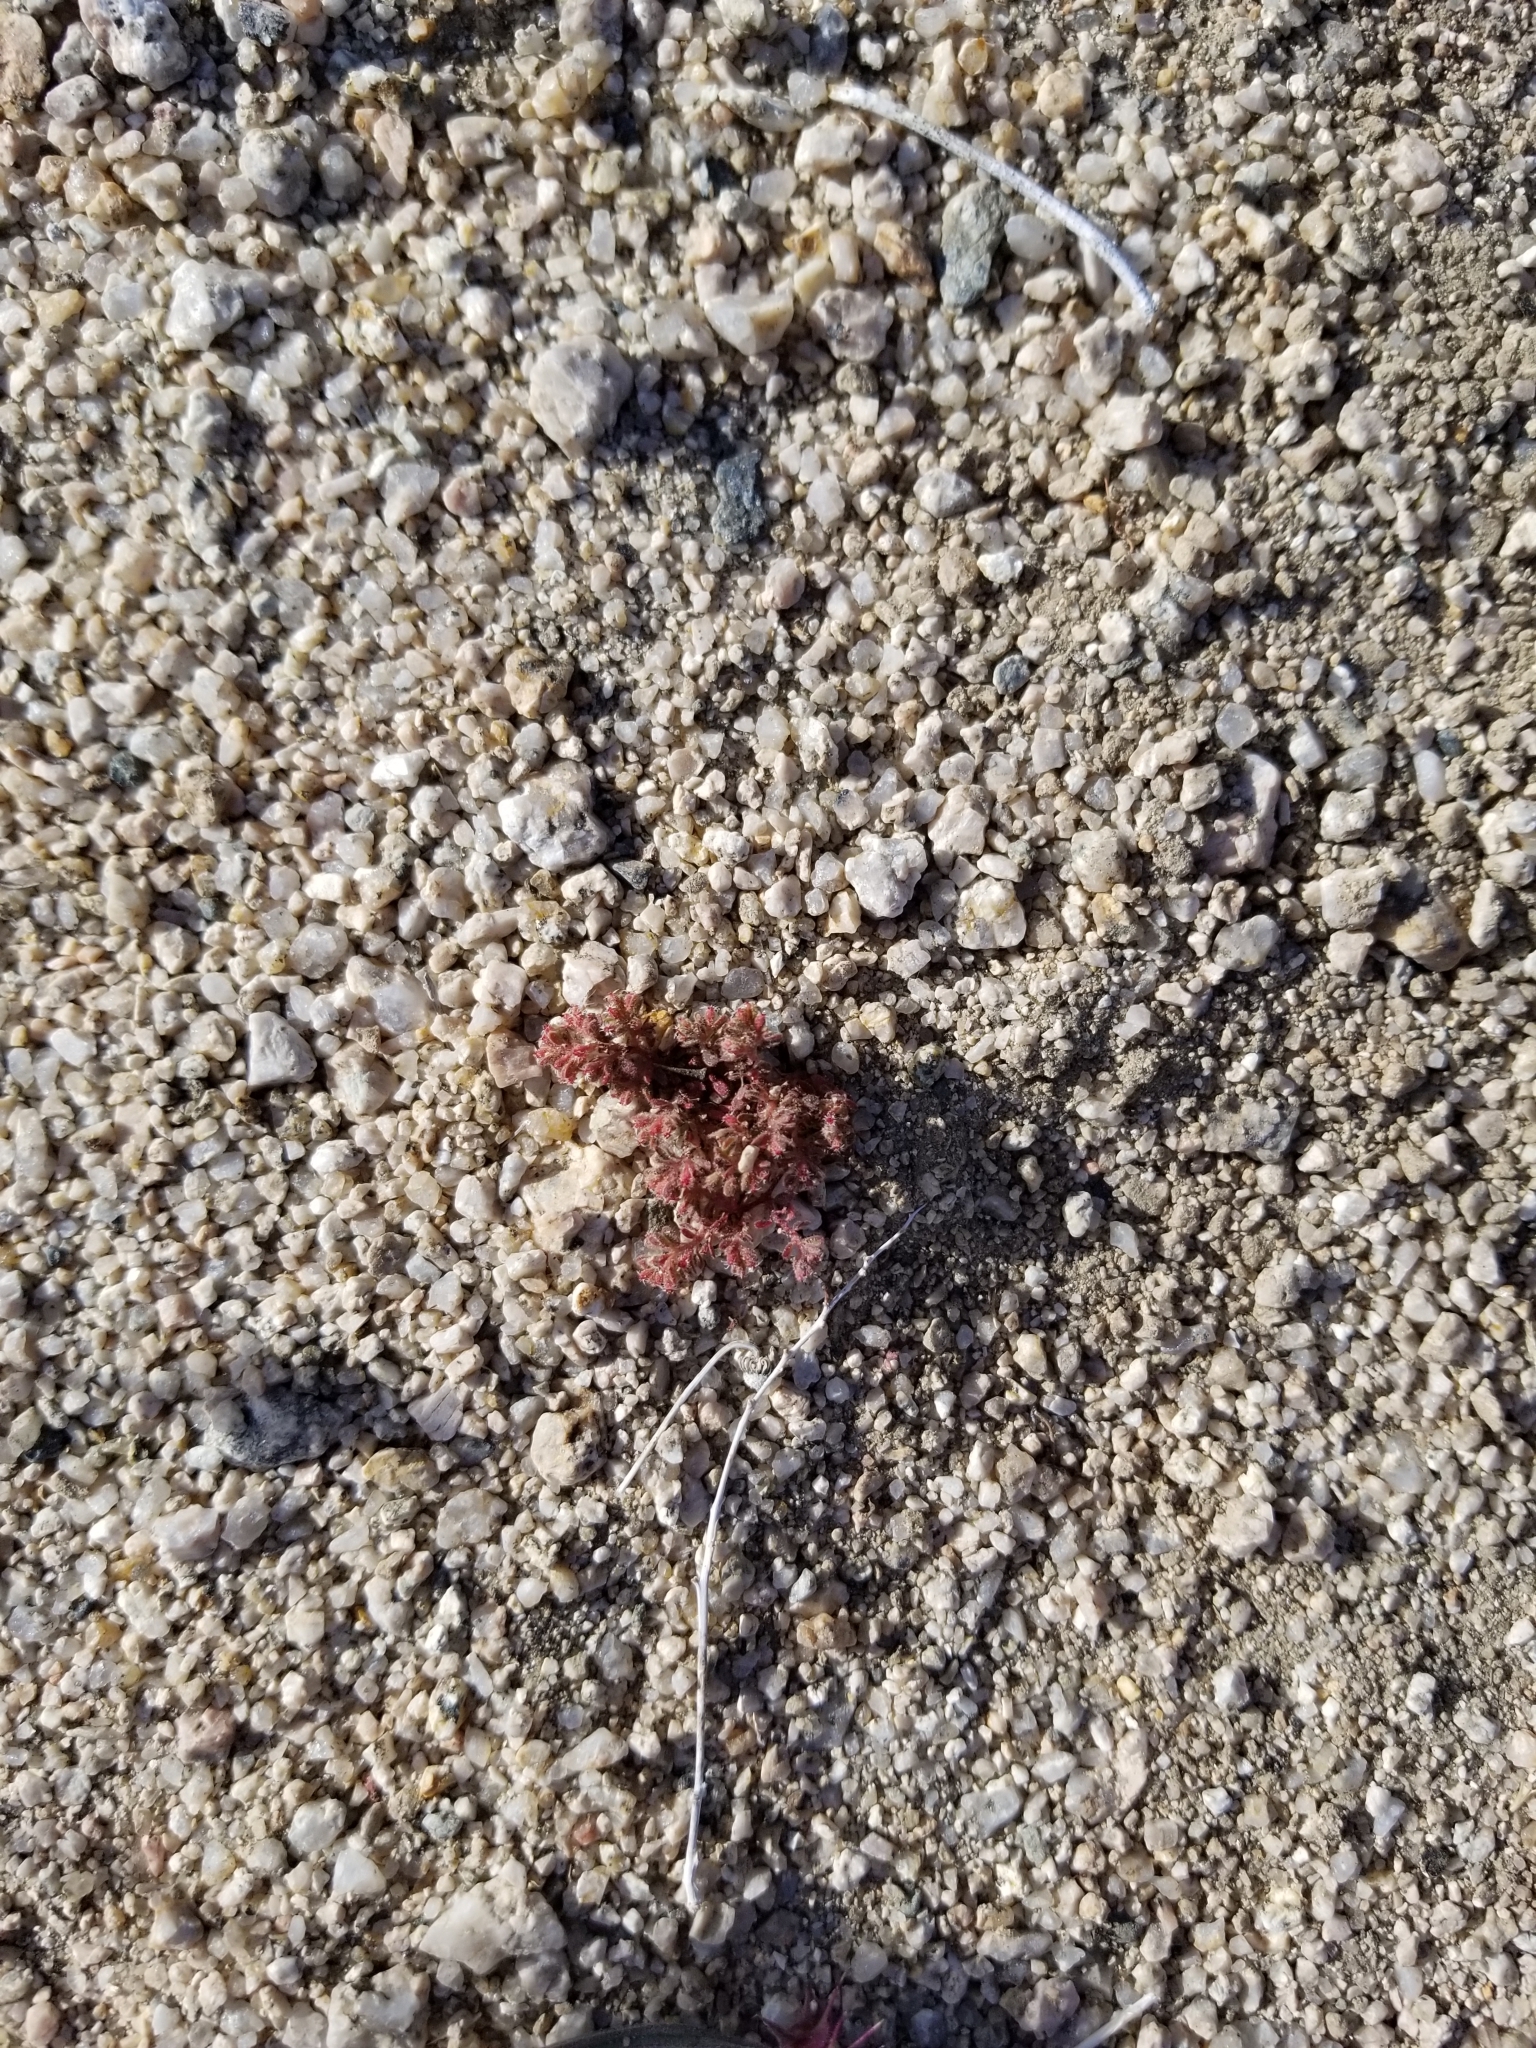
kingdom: Plantae
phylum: Tracheophyta
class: Magnoliopsida
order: Malpighiales
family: Euphorbiaceae
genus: Euphorbia
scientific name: Euphorbia setiloba
